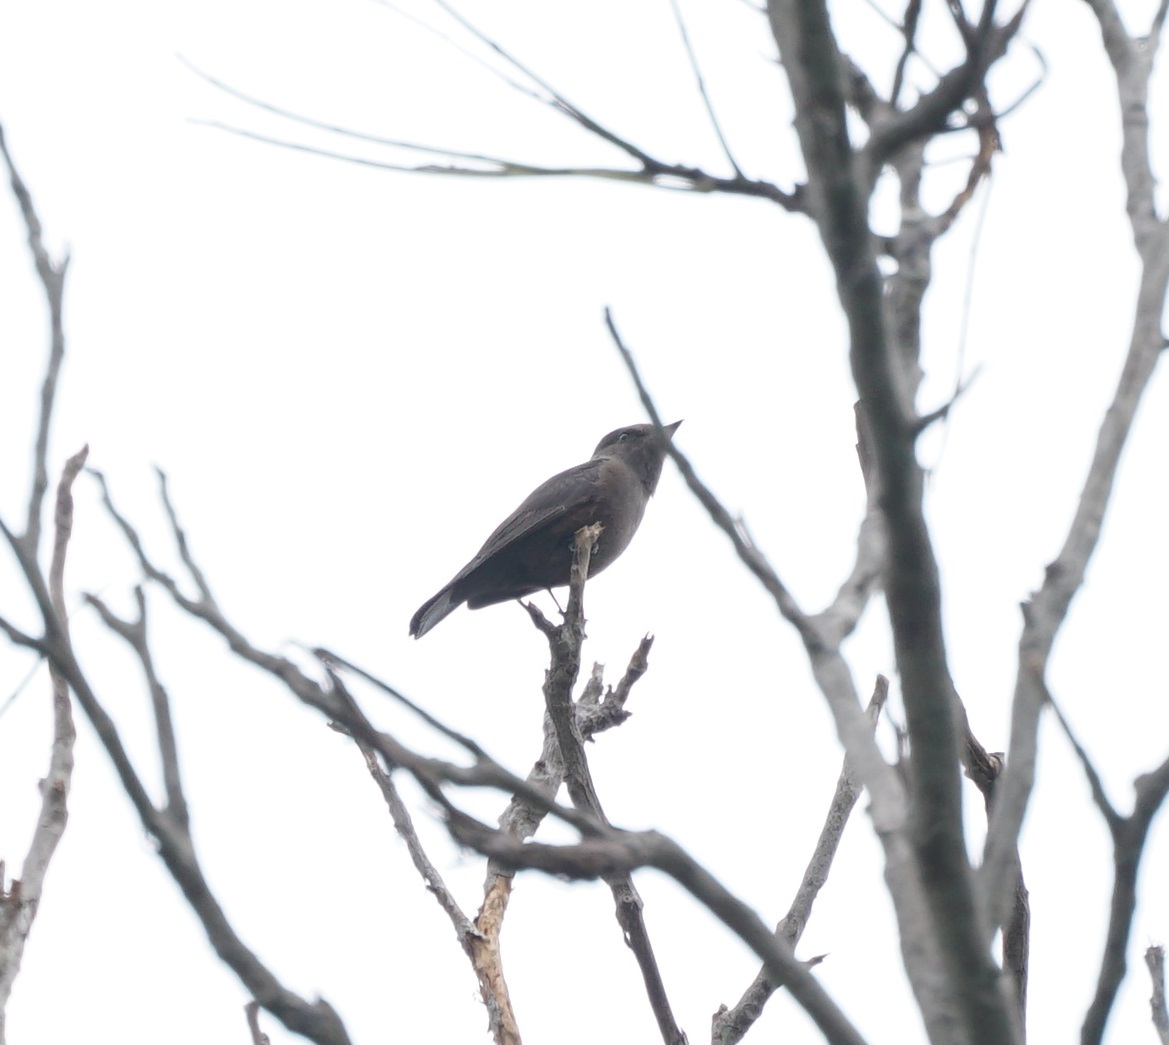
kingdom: Animalia
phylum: Chordata
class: Aves
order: Passeriformes
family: Tyrannidae
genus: Pyrocephalus
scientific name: Pyrocephalus rubinus
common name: Vermilion flycatcher
